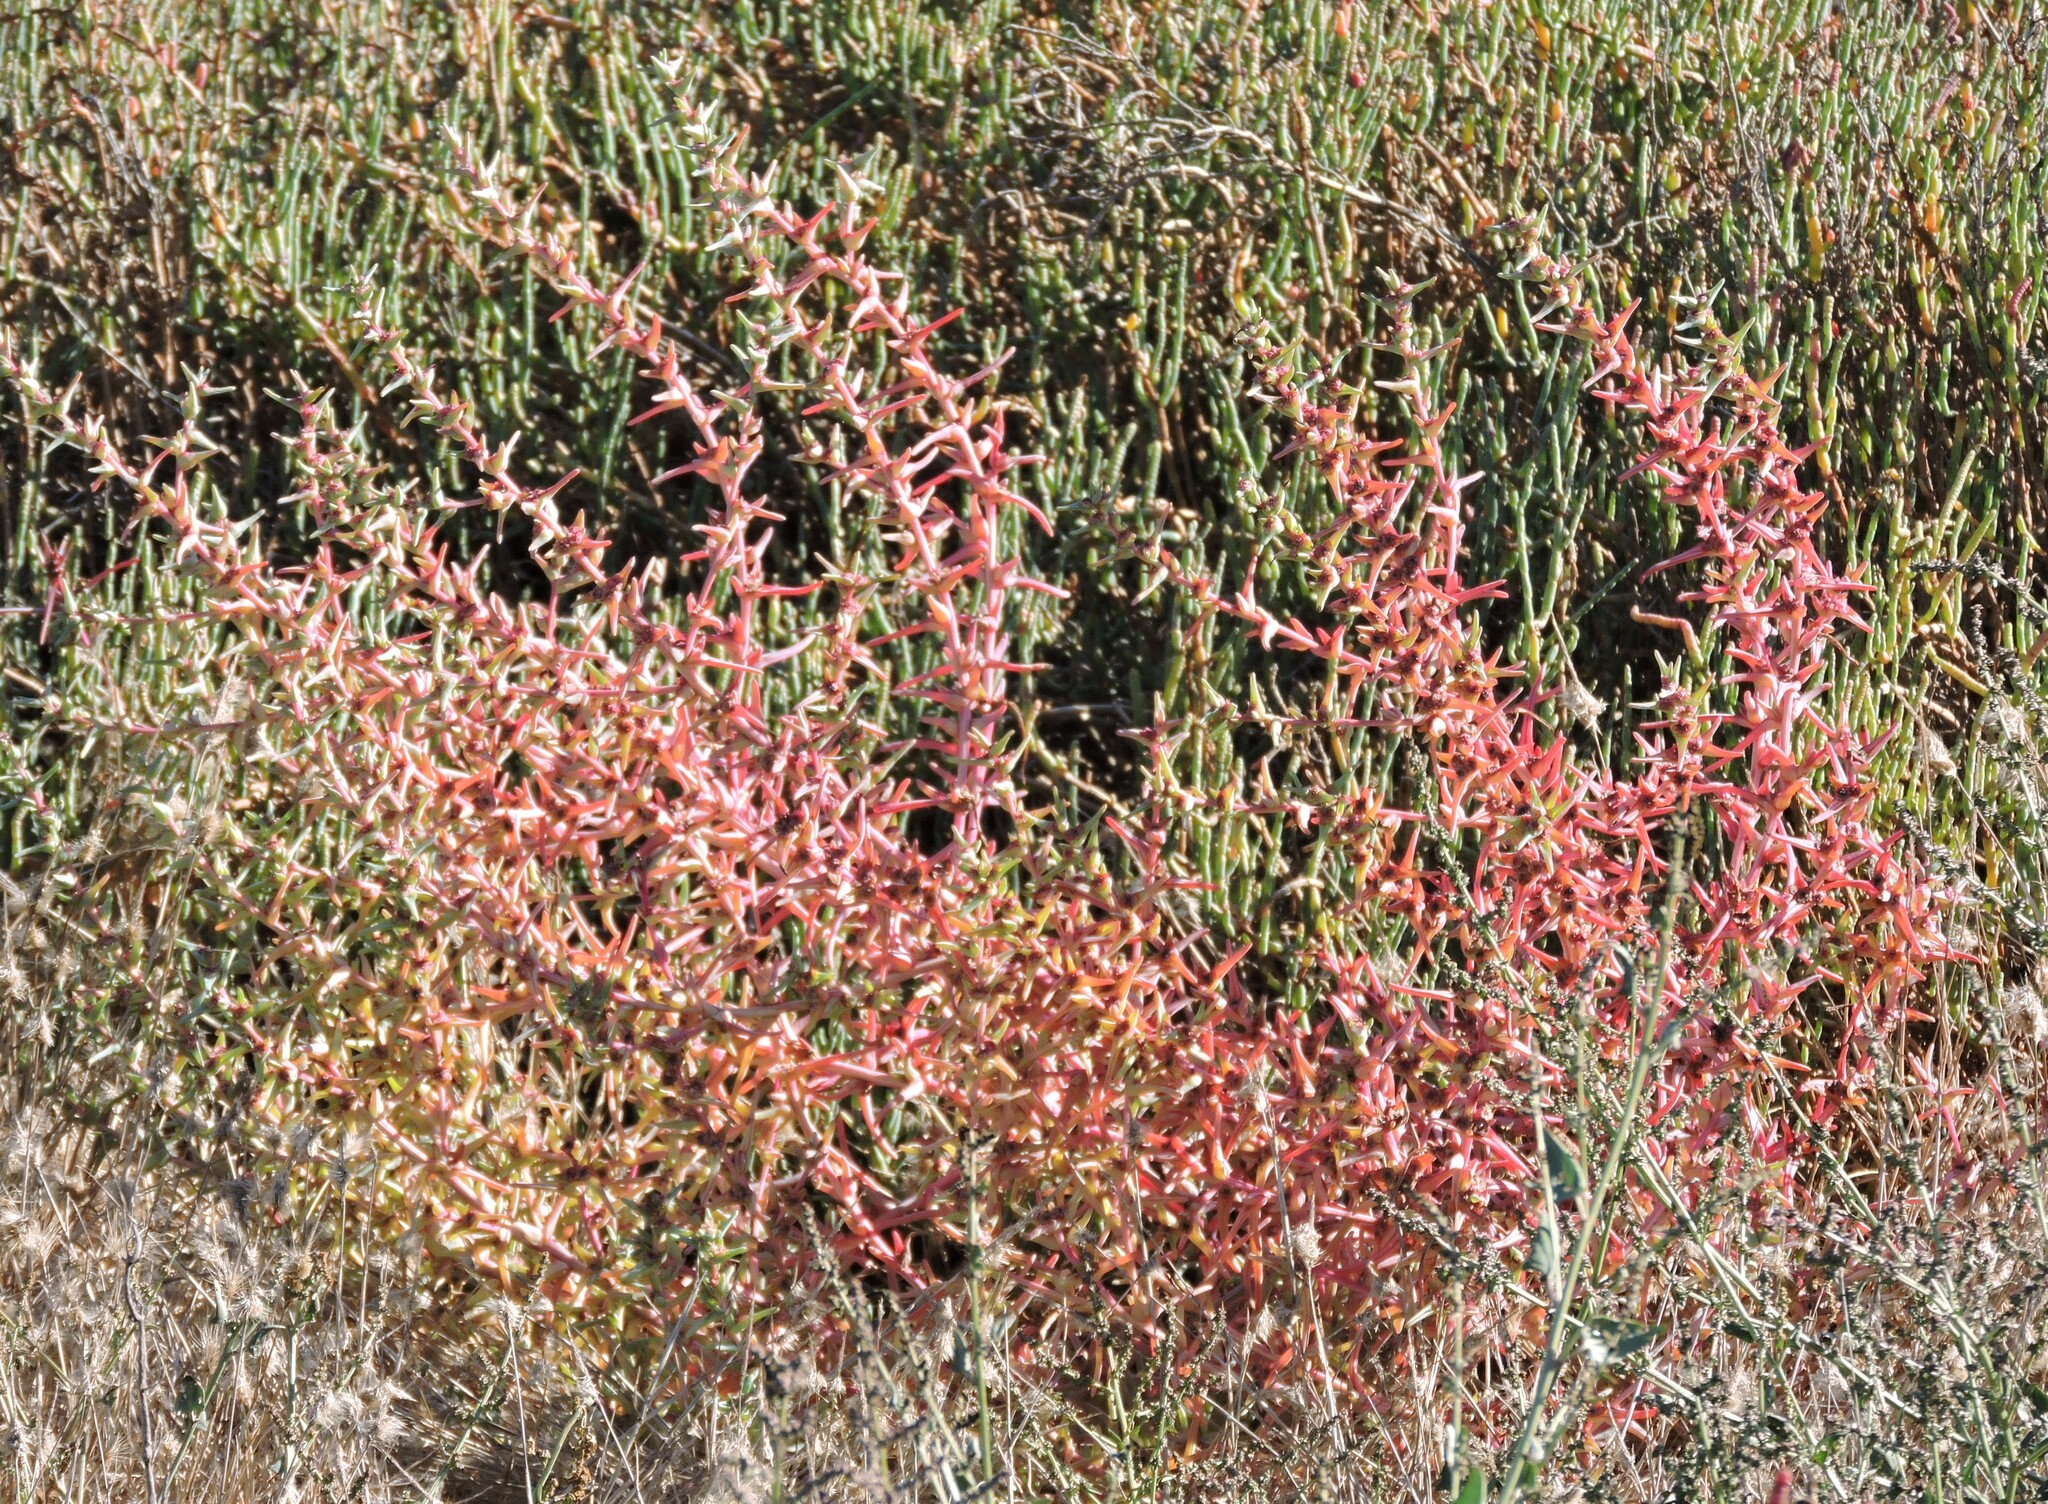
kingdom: Plantae
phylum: Tracheophyta
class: Magnoliopsida
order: Caryophyllales
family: Amaranthaceae
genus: Salsola
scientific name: Salsola soda
